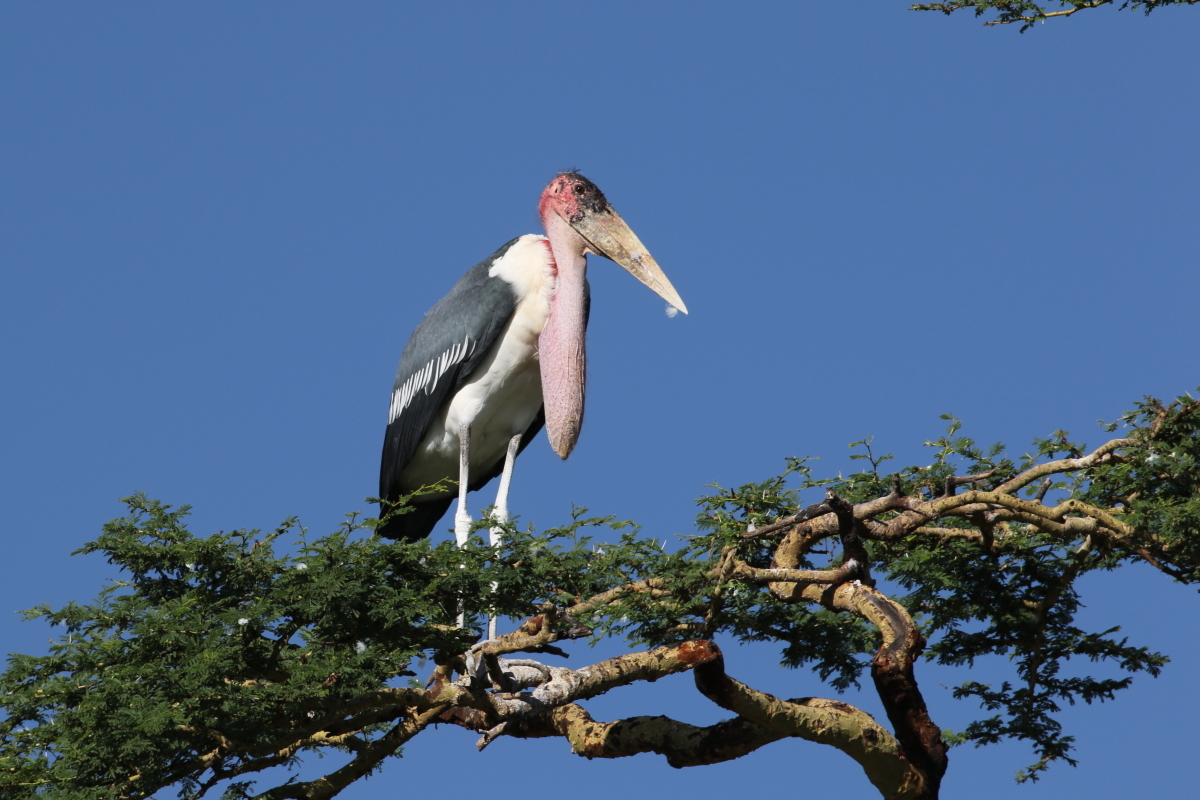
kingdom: Animalia
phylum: Chordata
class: Aves
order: Ciconiiformes
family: Ciconiidae
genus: Leptoptilos
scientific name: Leptoptilos crumenifer
